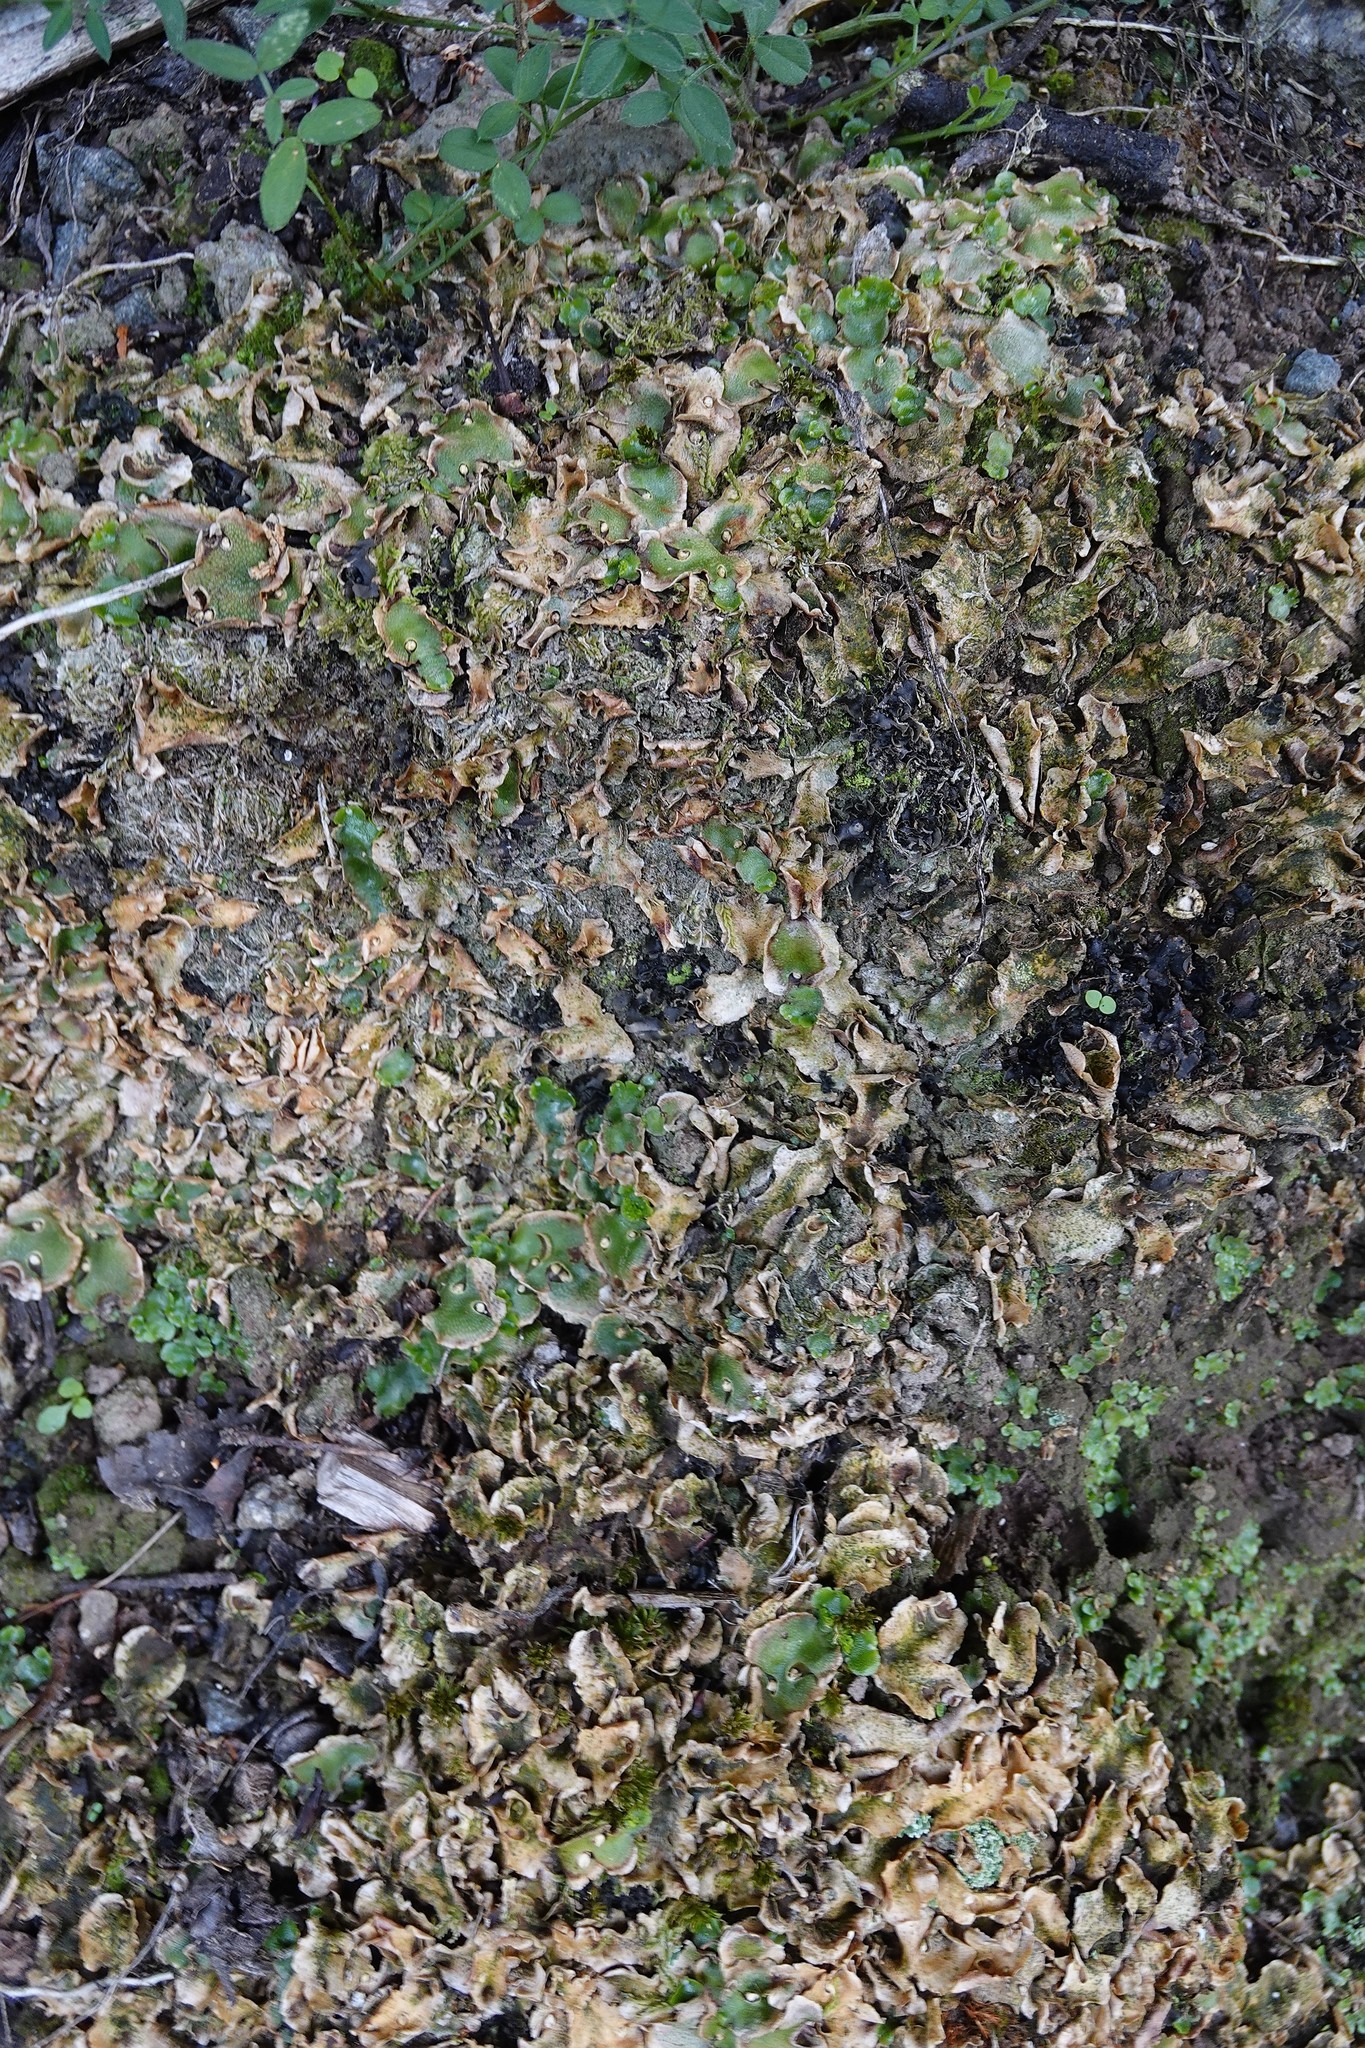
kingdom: Plantae
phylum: Marchantiophyta
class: Marchantiopsida
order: Lunulariales
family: Lunulariaceae
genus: Lunularia
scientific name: Lunularia cruciata
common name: Crescent-cup liverwort
